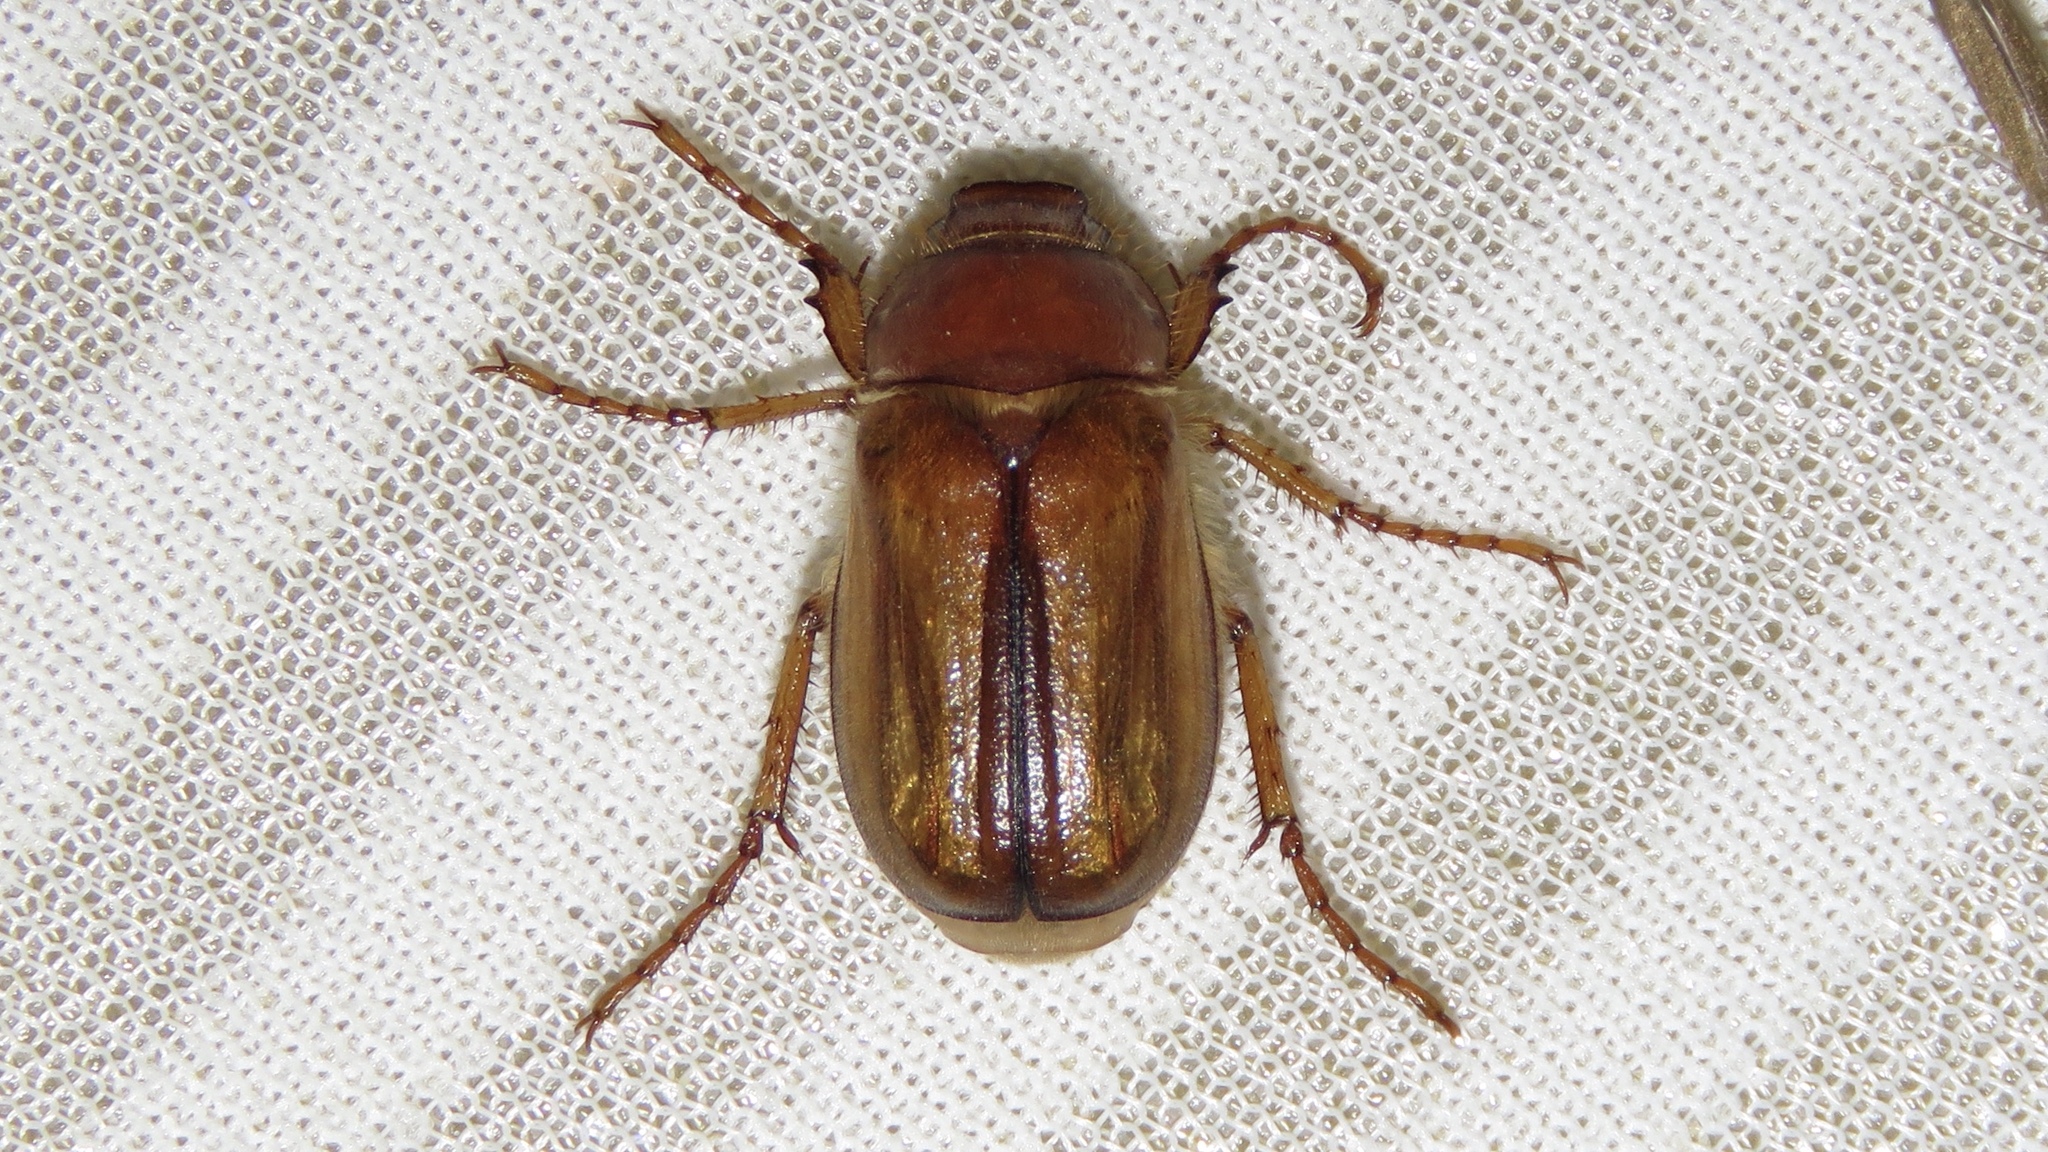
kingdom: Animalia
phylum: Arthropoda
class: Insecta
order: Coleoptera
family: Scarabaeidae
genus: Amphimallon
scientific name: Amphimallon majale
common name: European chafer
